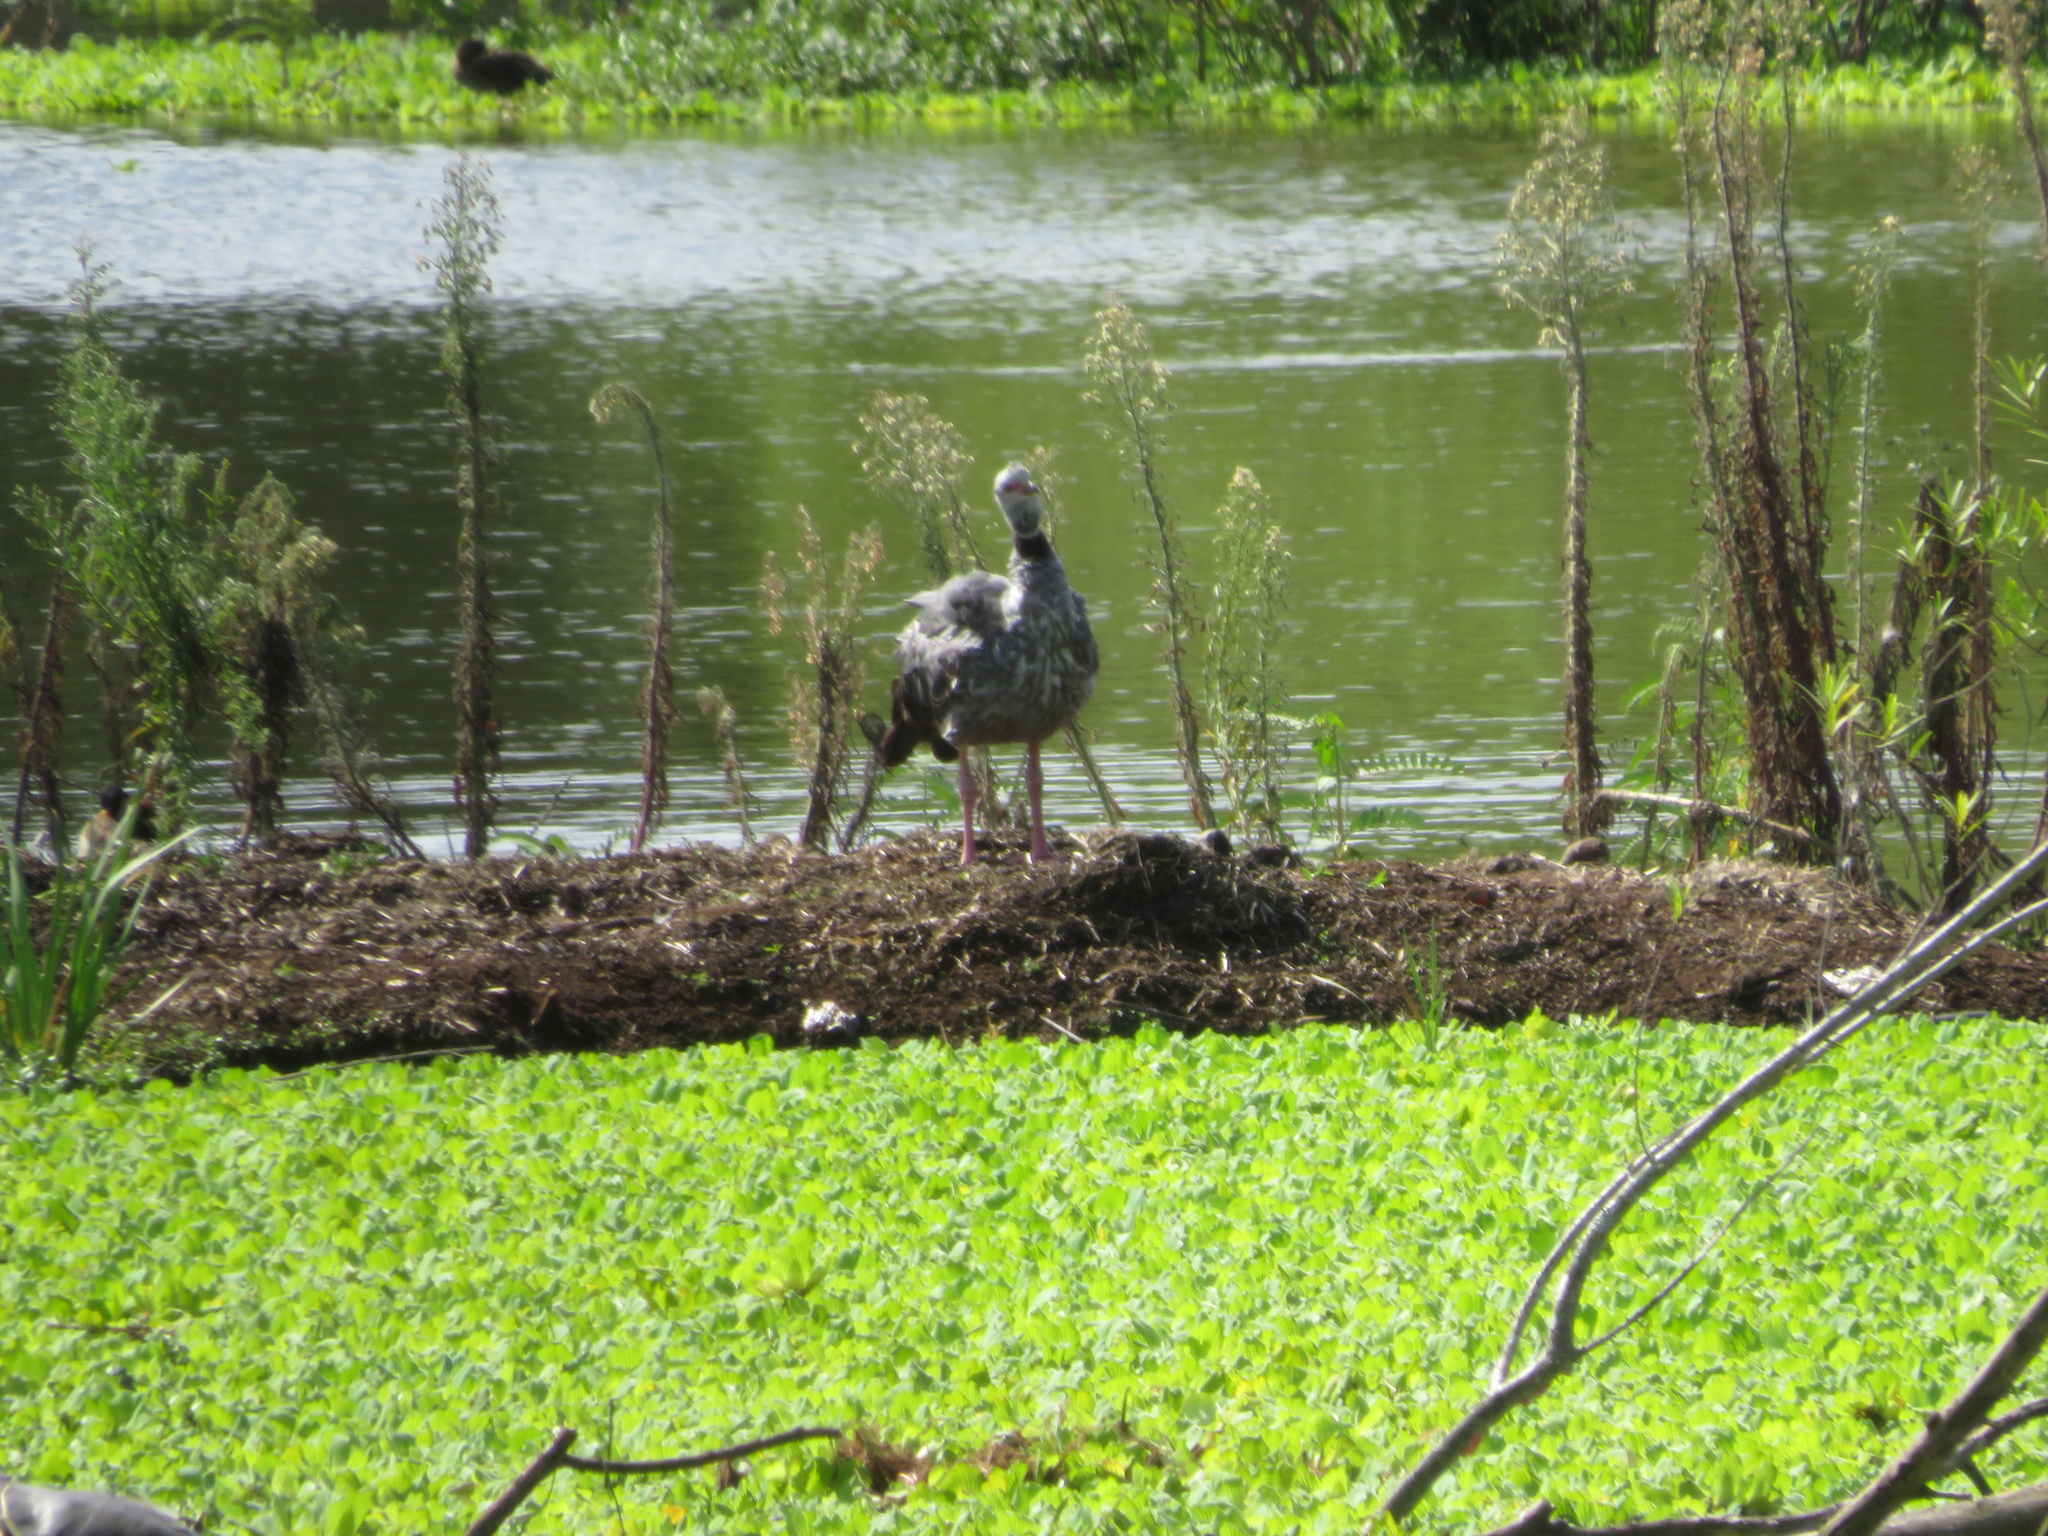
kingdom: Animalia
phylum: Chordata
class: Aves
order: Anseriformes
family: Anhimidae
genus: Chauna
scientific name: Chauna torquata
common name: Southern screamer
